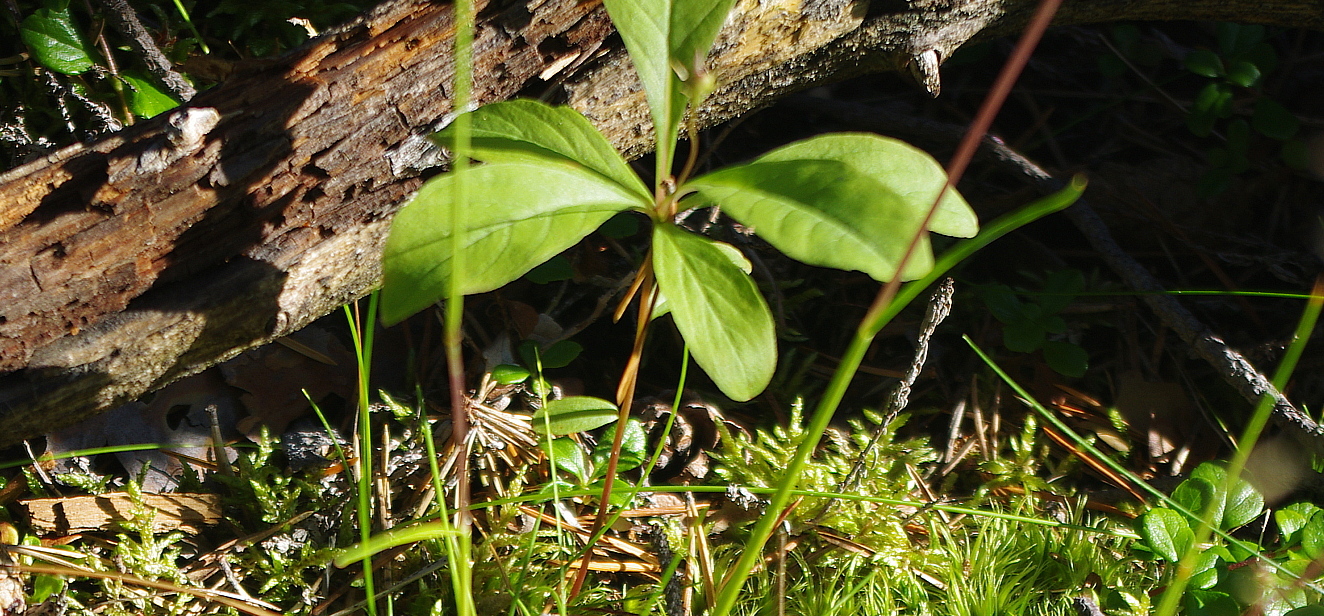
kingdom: Plantae
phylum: Tracheophyta
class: Magnoliopsida
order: Ericales
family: Primulaceae
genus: Lysimachia
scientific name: Lysimachia europaea
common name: Arctic starflower
